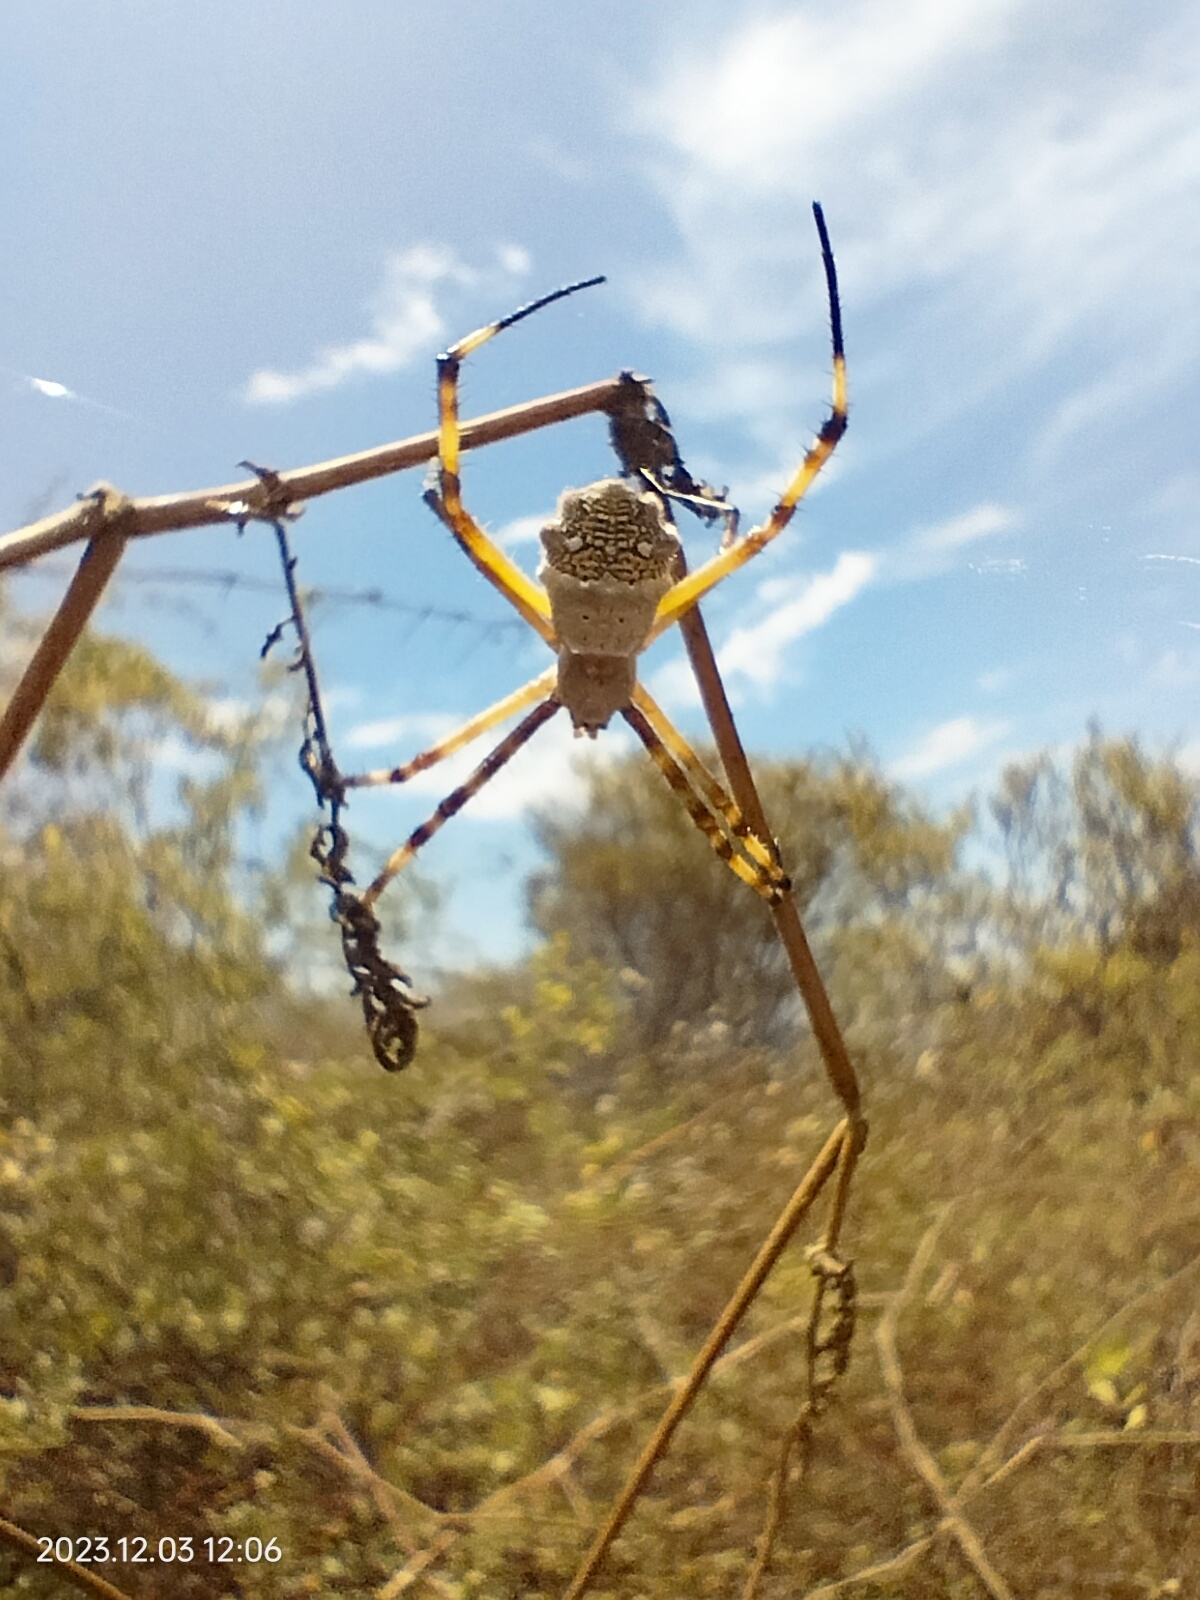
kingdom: Animalia
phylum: Arthropoda
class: Arachnida
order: Araneae
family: Araneidae
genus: Argiope
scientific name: Argiope argentata
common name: Orb weavers
